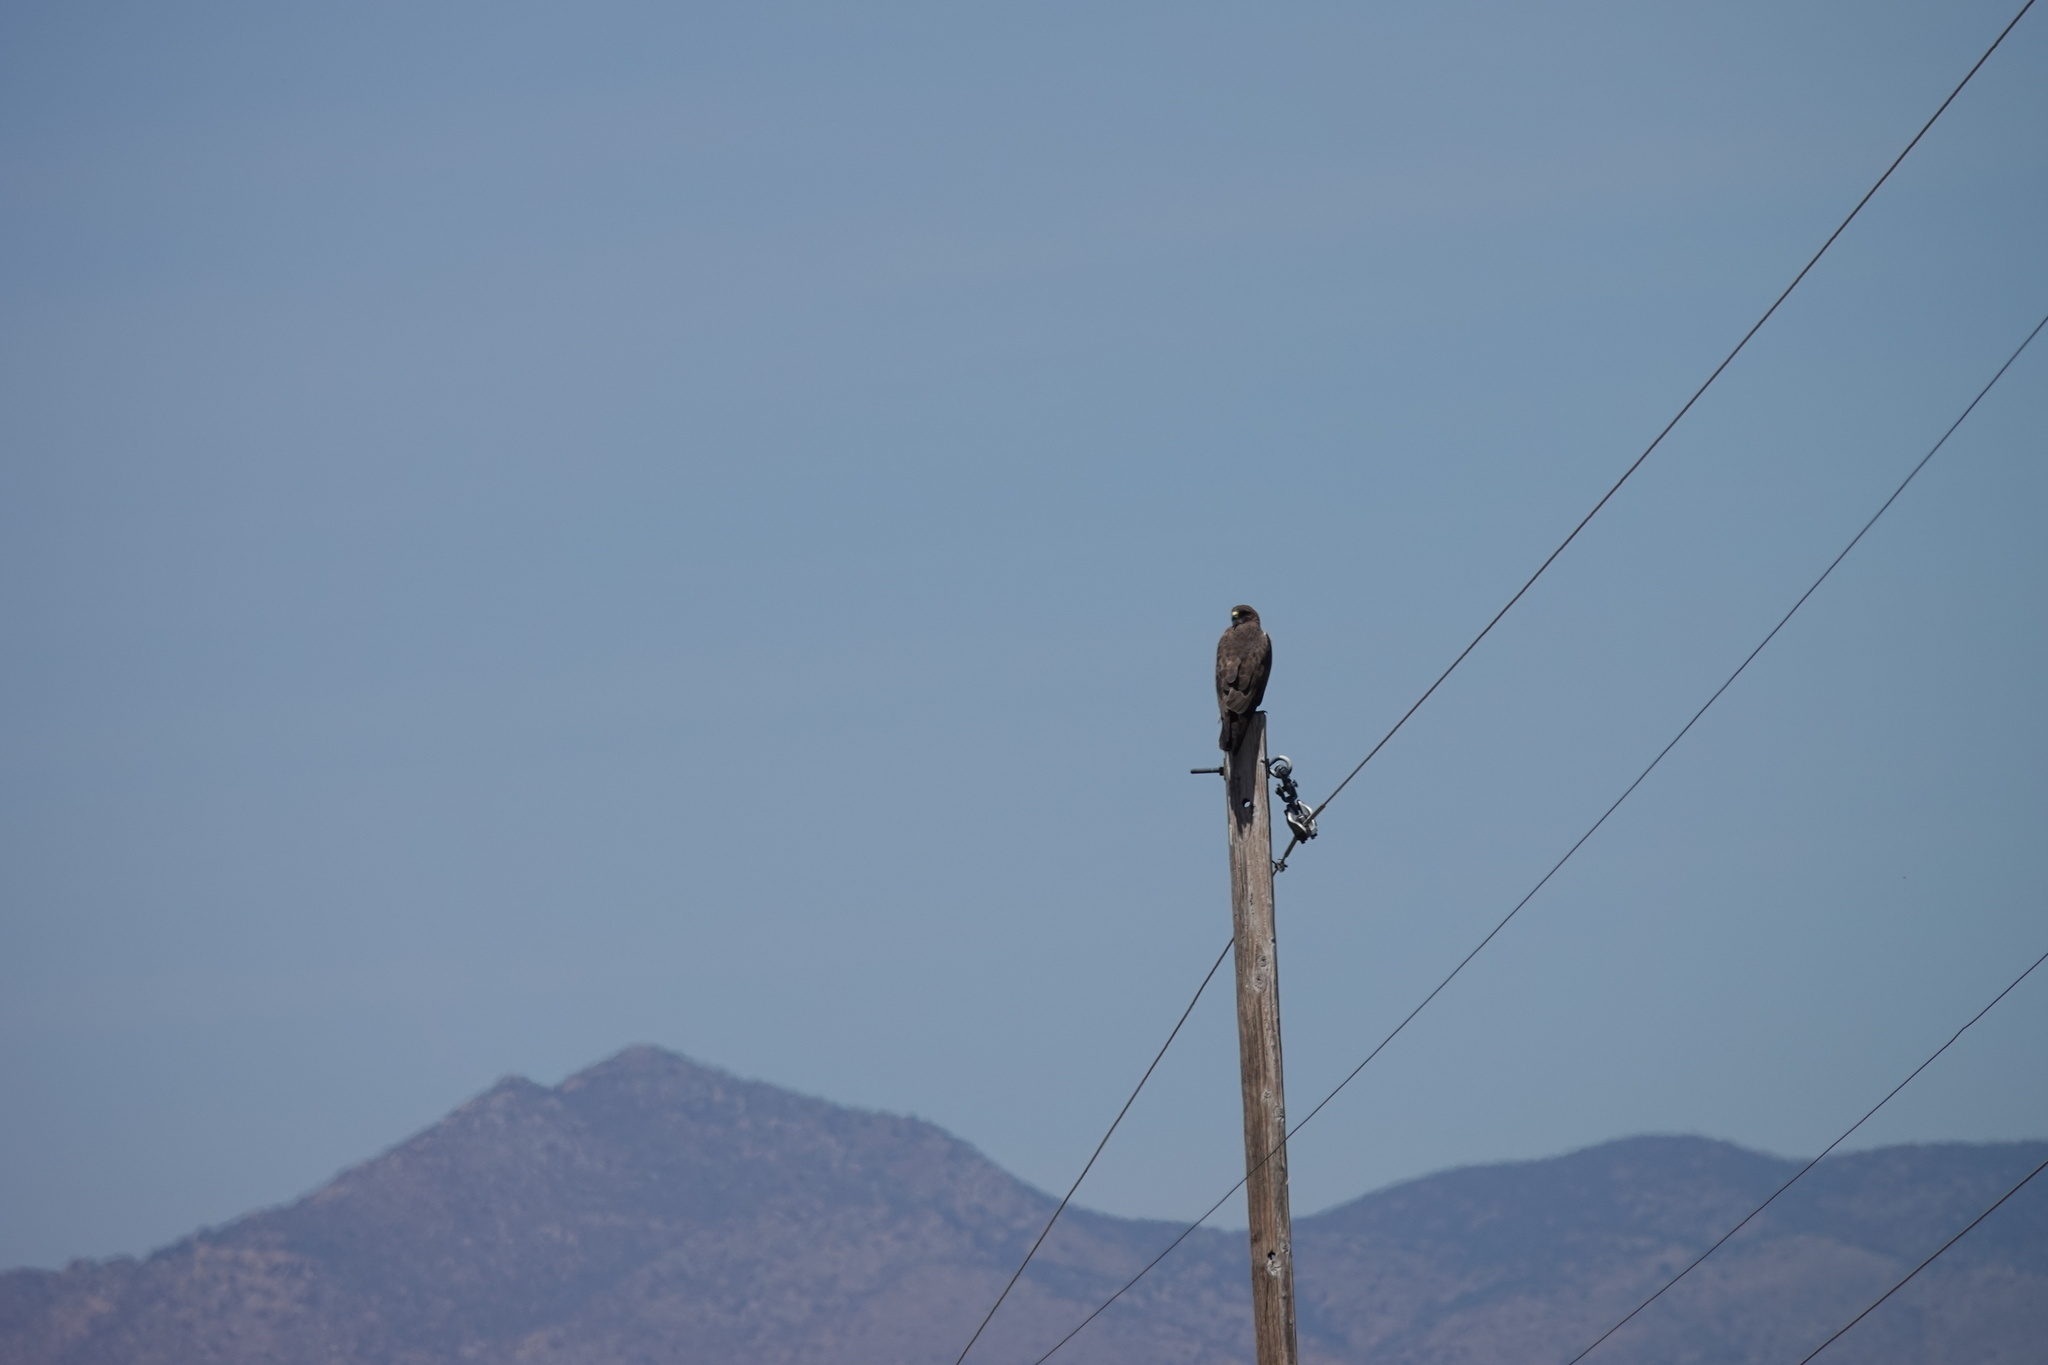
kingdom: Animalia
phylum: Chordata
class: Aves
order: Accipitriformes
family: Accipitridae
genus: Buteo
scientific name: Buteo swainsoni
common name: Swainson's hawk
